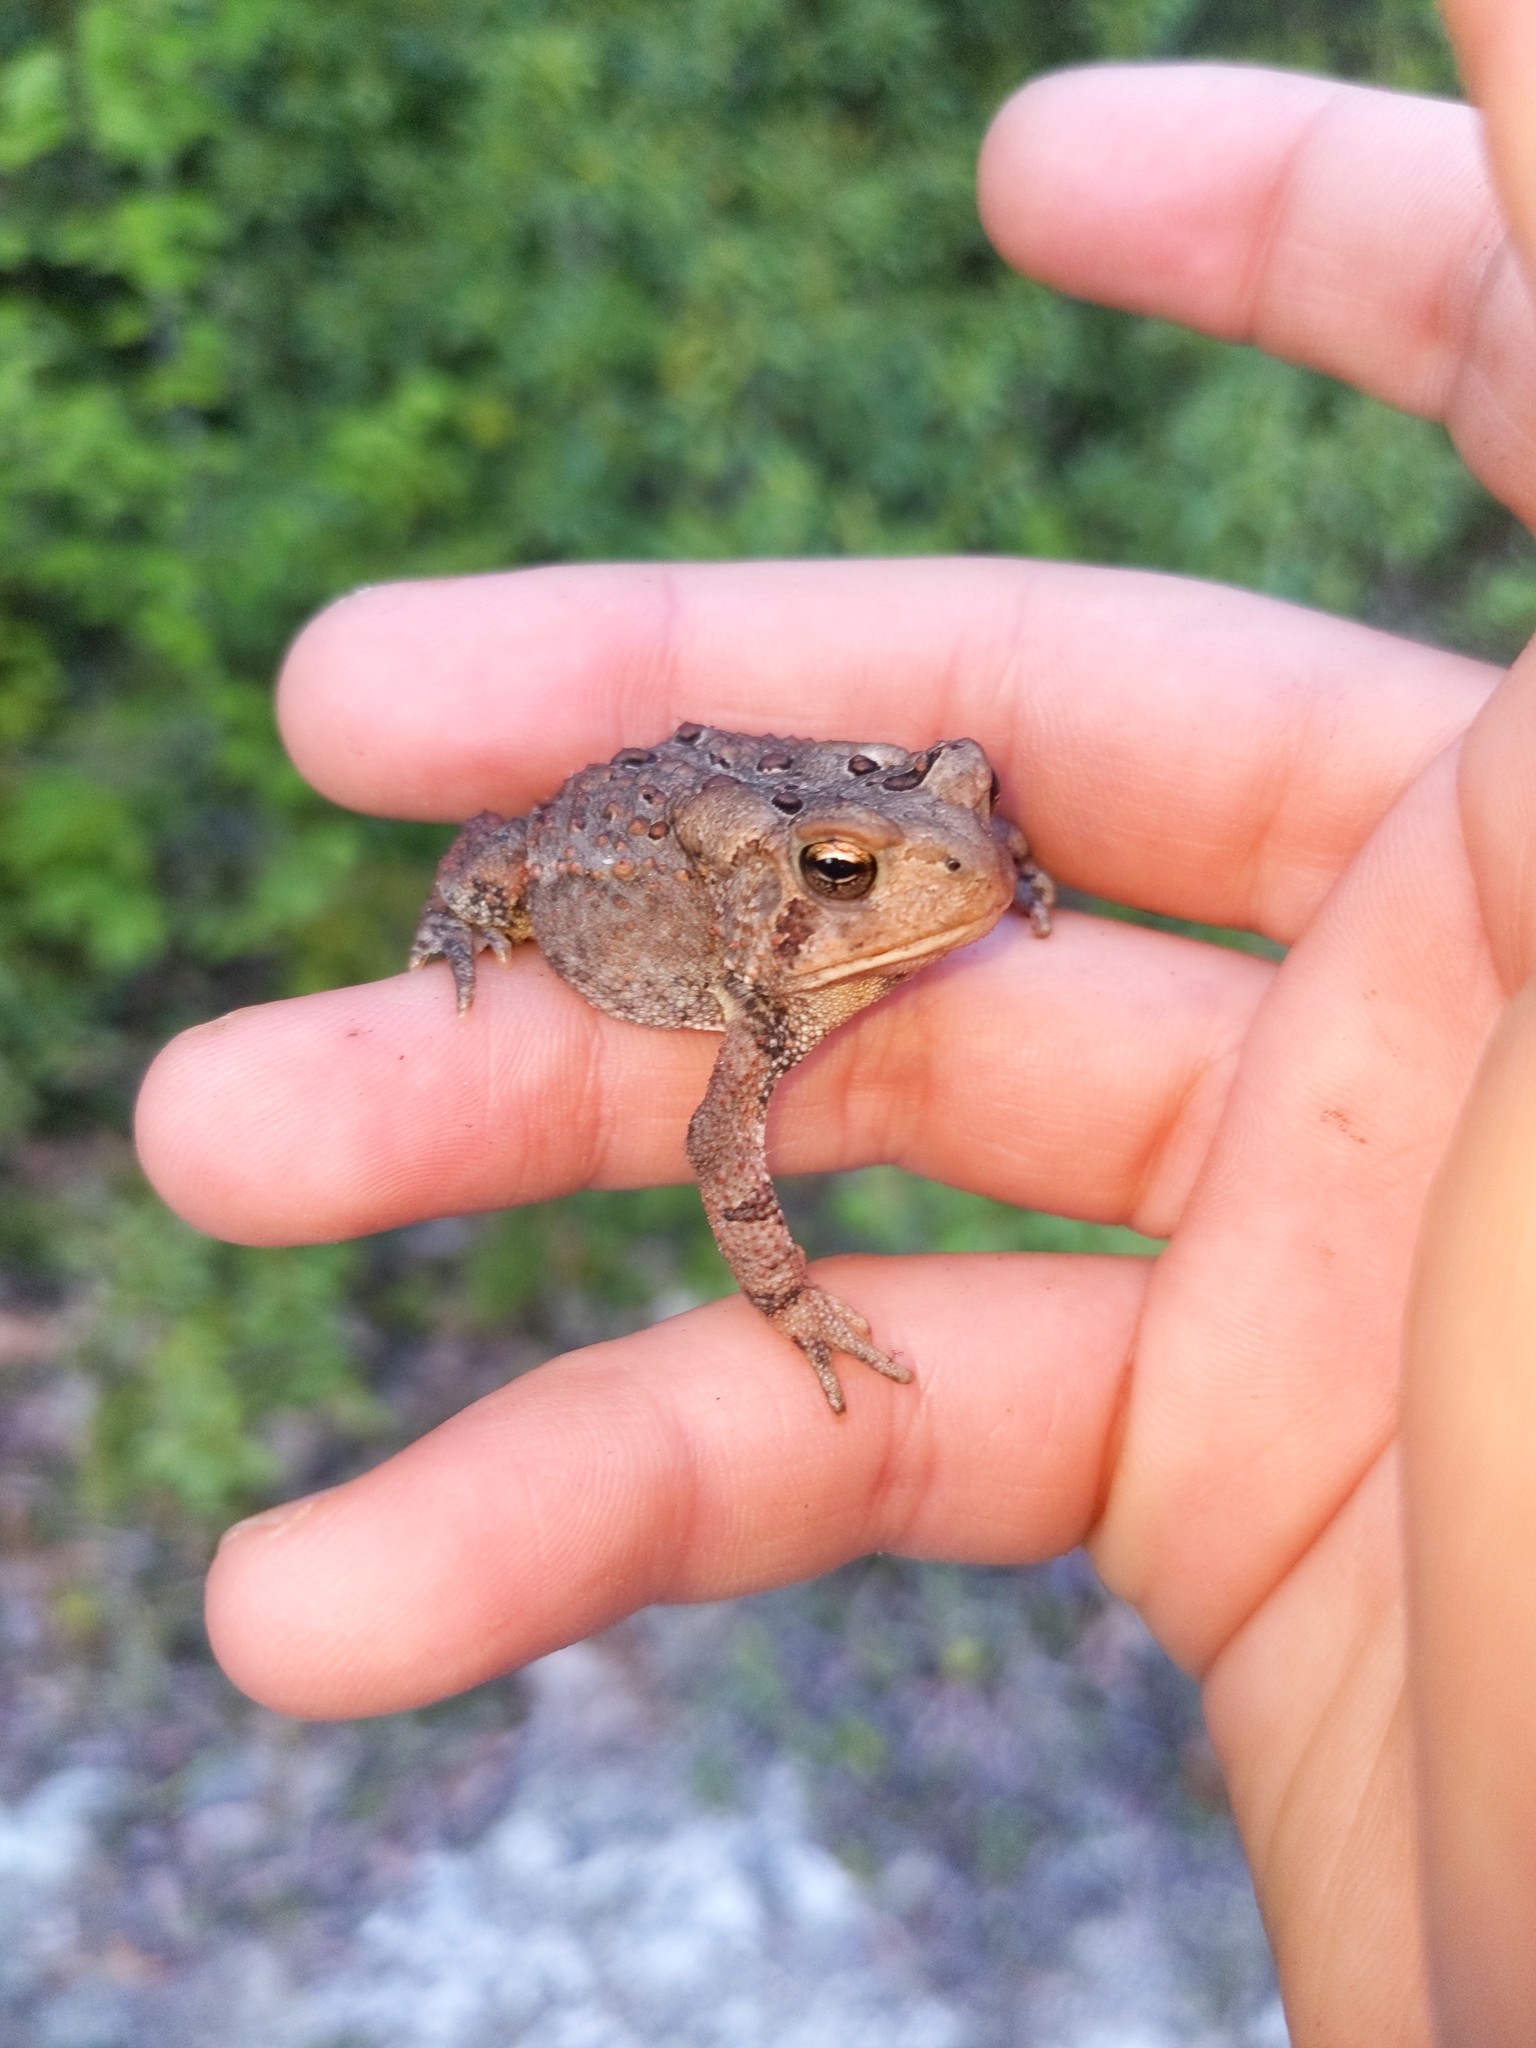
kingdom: Animalia
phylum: Chordata
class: Amphibia
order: Anura
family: Bufonidae
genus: Anaxyrus
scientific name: Anaxyrus americanus
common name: American toad
